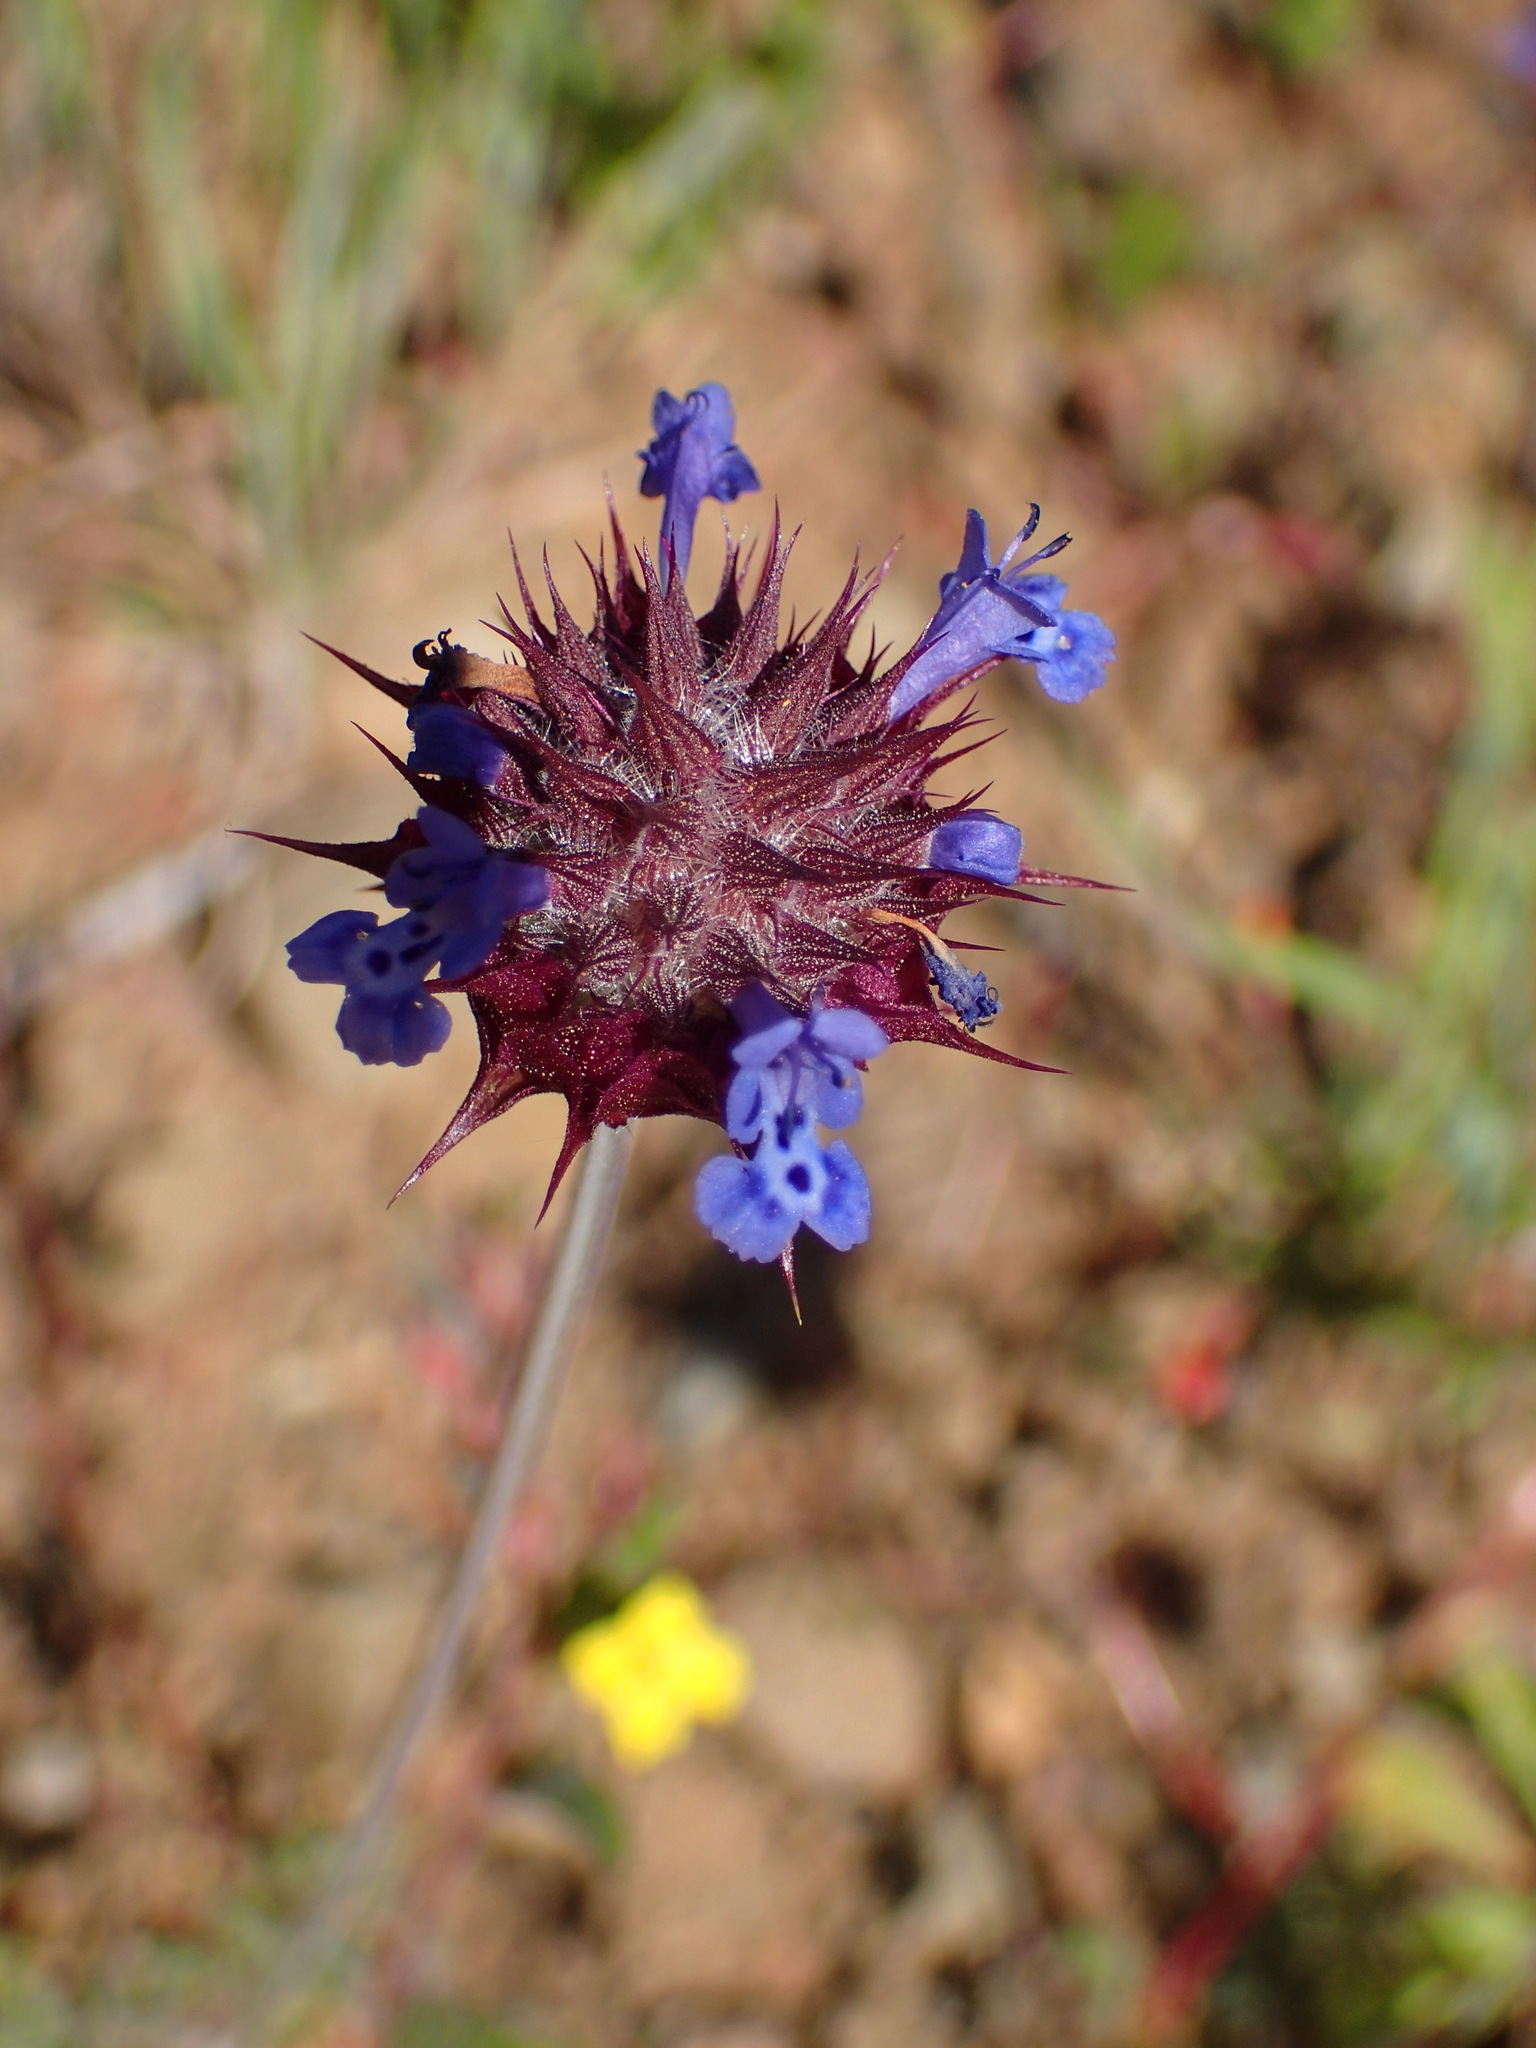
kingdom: Plantae
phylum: Tracheophyta
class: Magnoliopsida
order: Lamiales
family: Lamiaceae
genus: Salvia
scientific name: Salvia columbariae
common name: Chia
